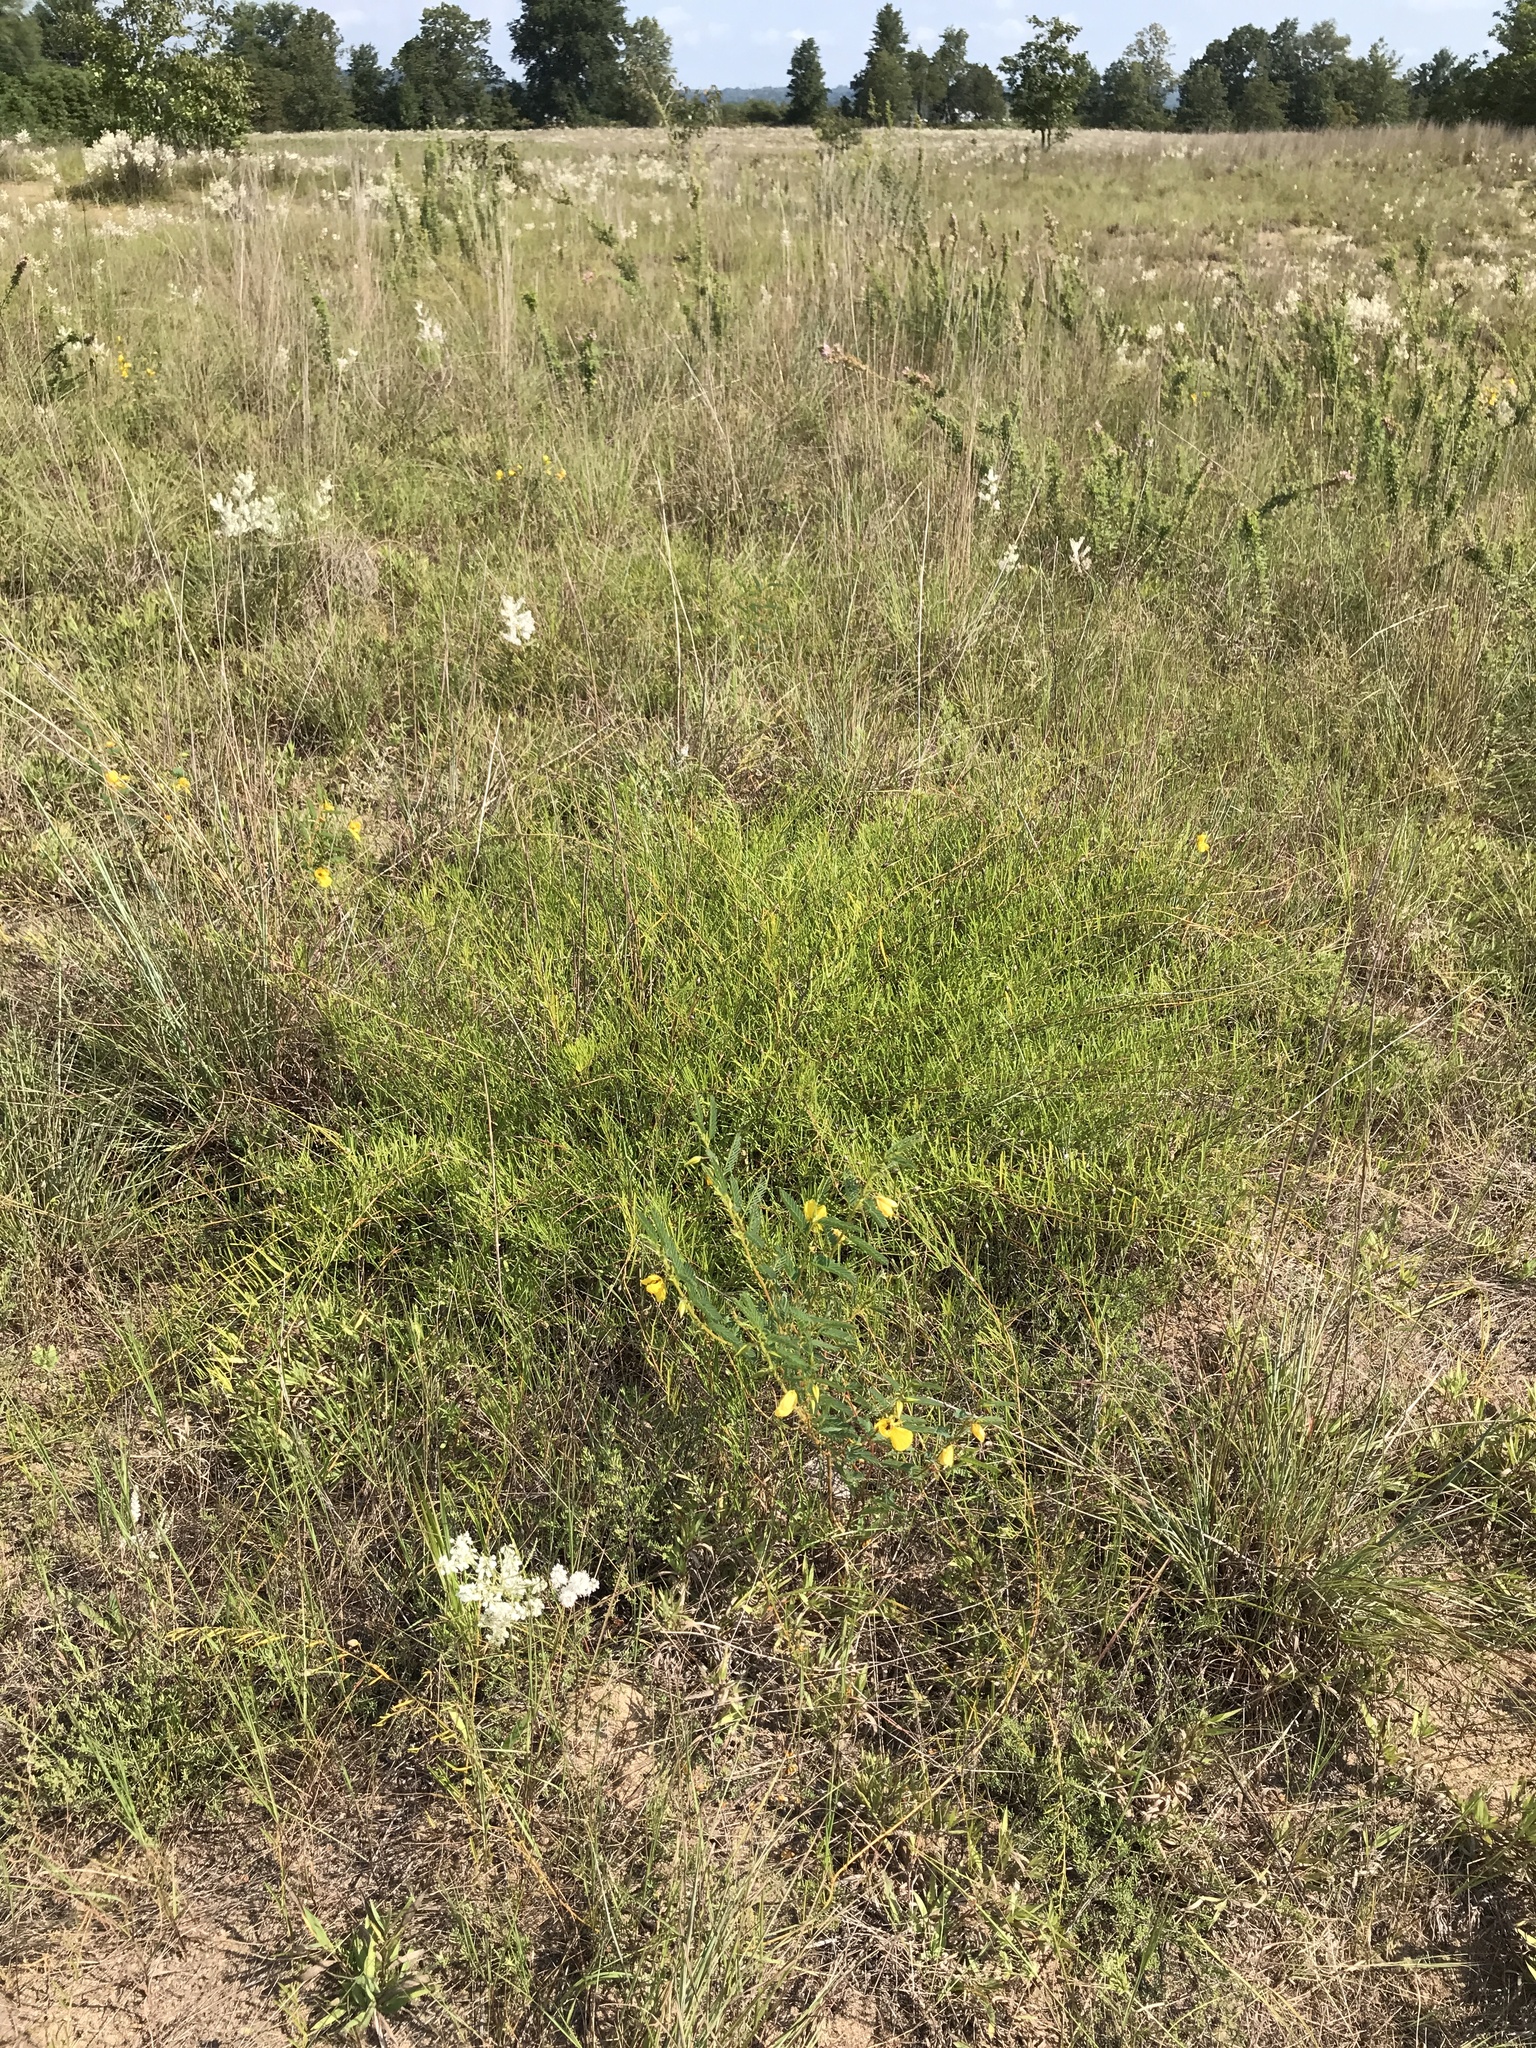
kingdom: Plantae
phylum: Tracheophyta
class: Magnoliopsida
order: Solanales
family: Convolvulaceae
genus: Stylisma
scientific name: Stylisma pickeringii
